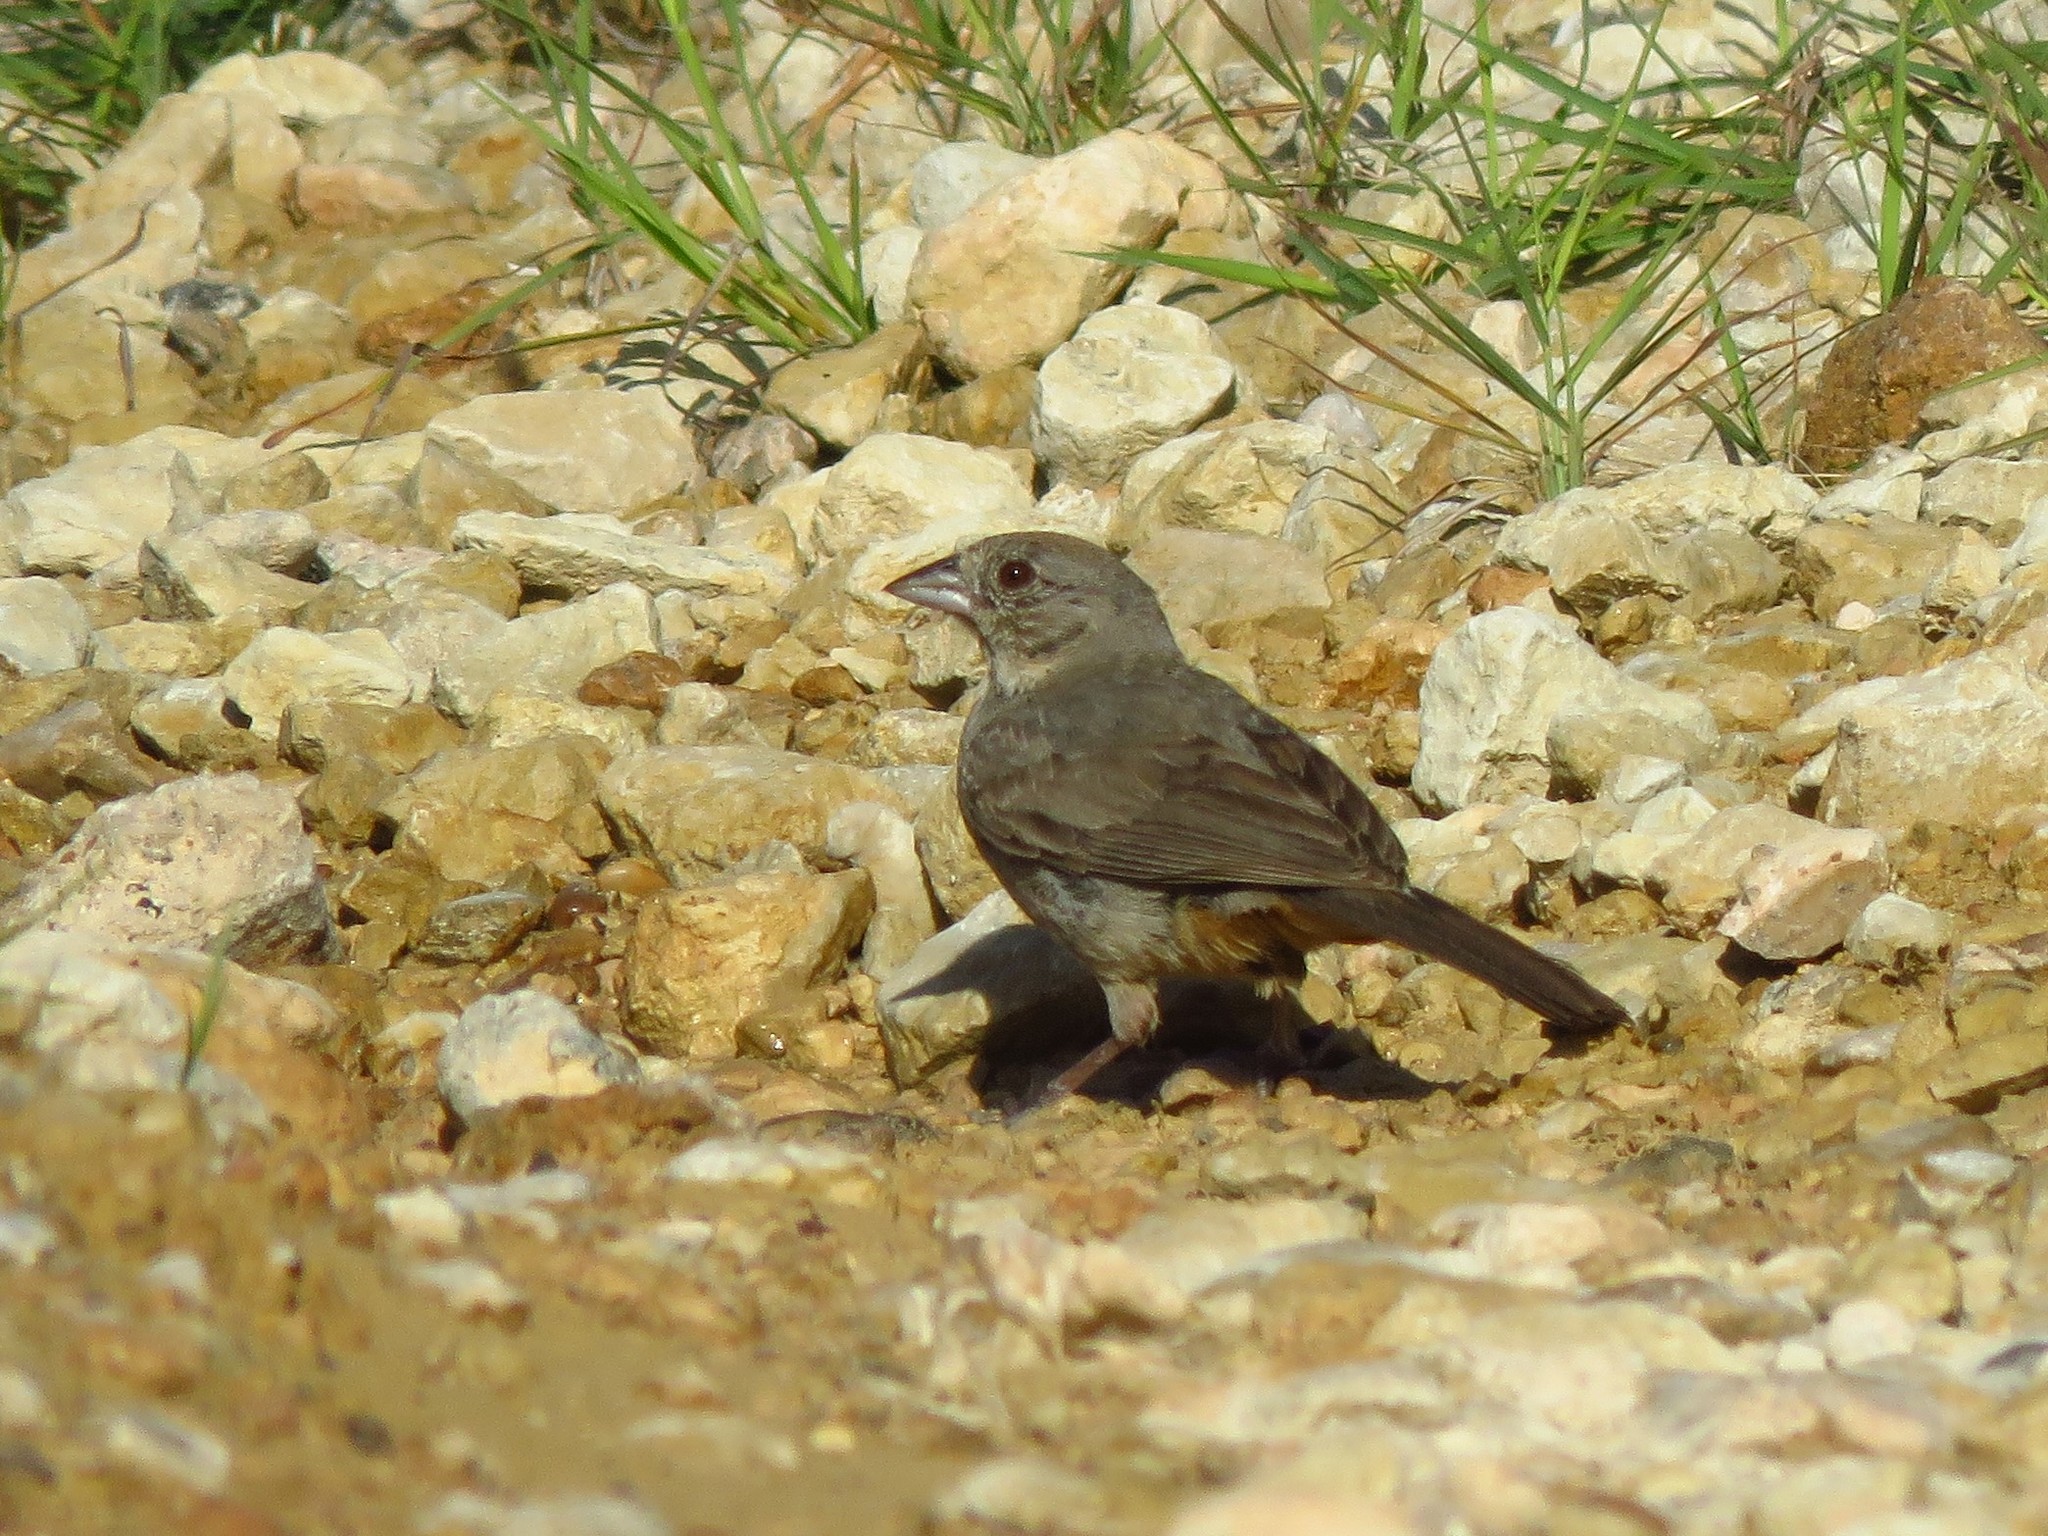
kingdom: Animalia
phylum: Chordata
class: Aves
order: Passeriformes
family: Passerellidae
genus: Melozone
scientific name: Melozone fusca
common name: Canyon towhee
